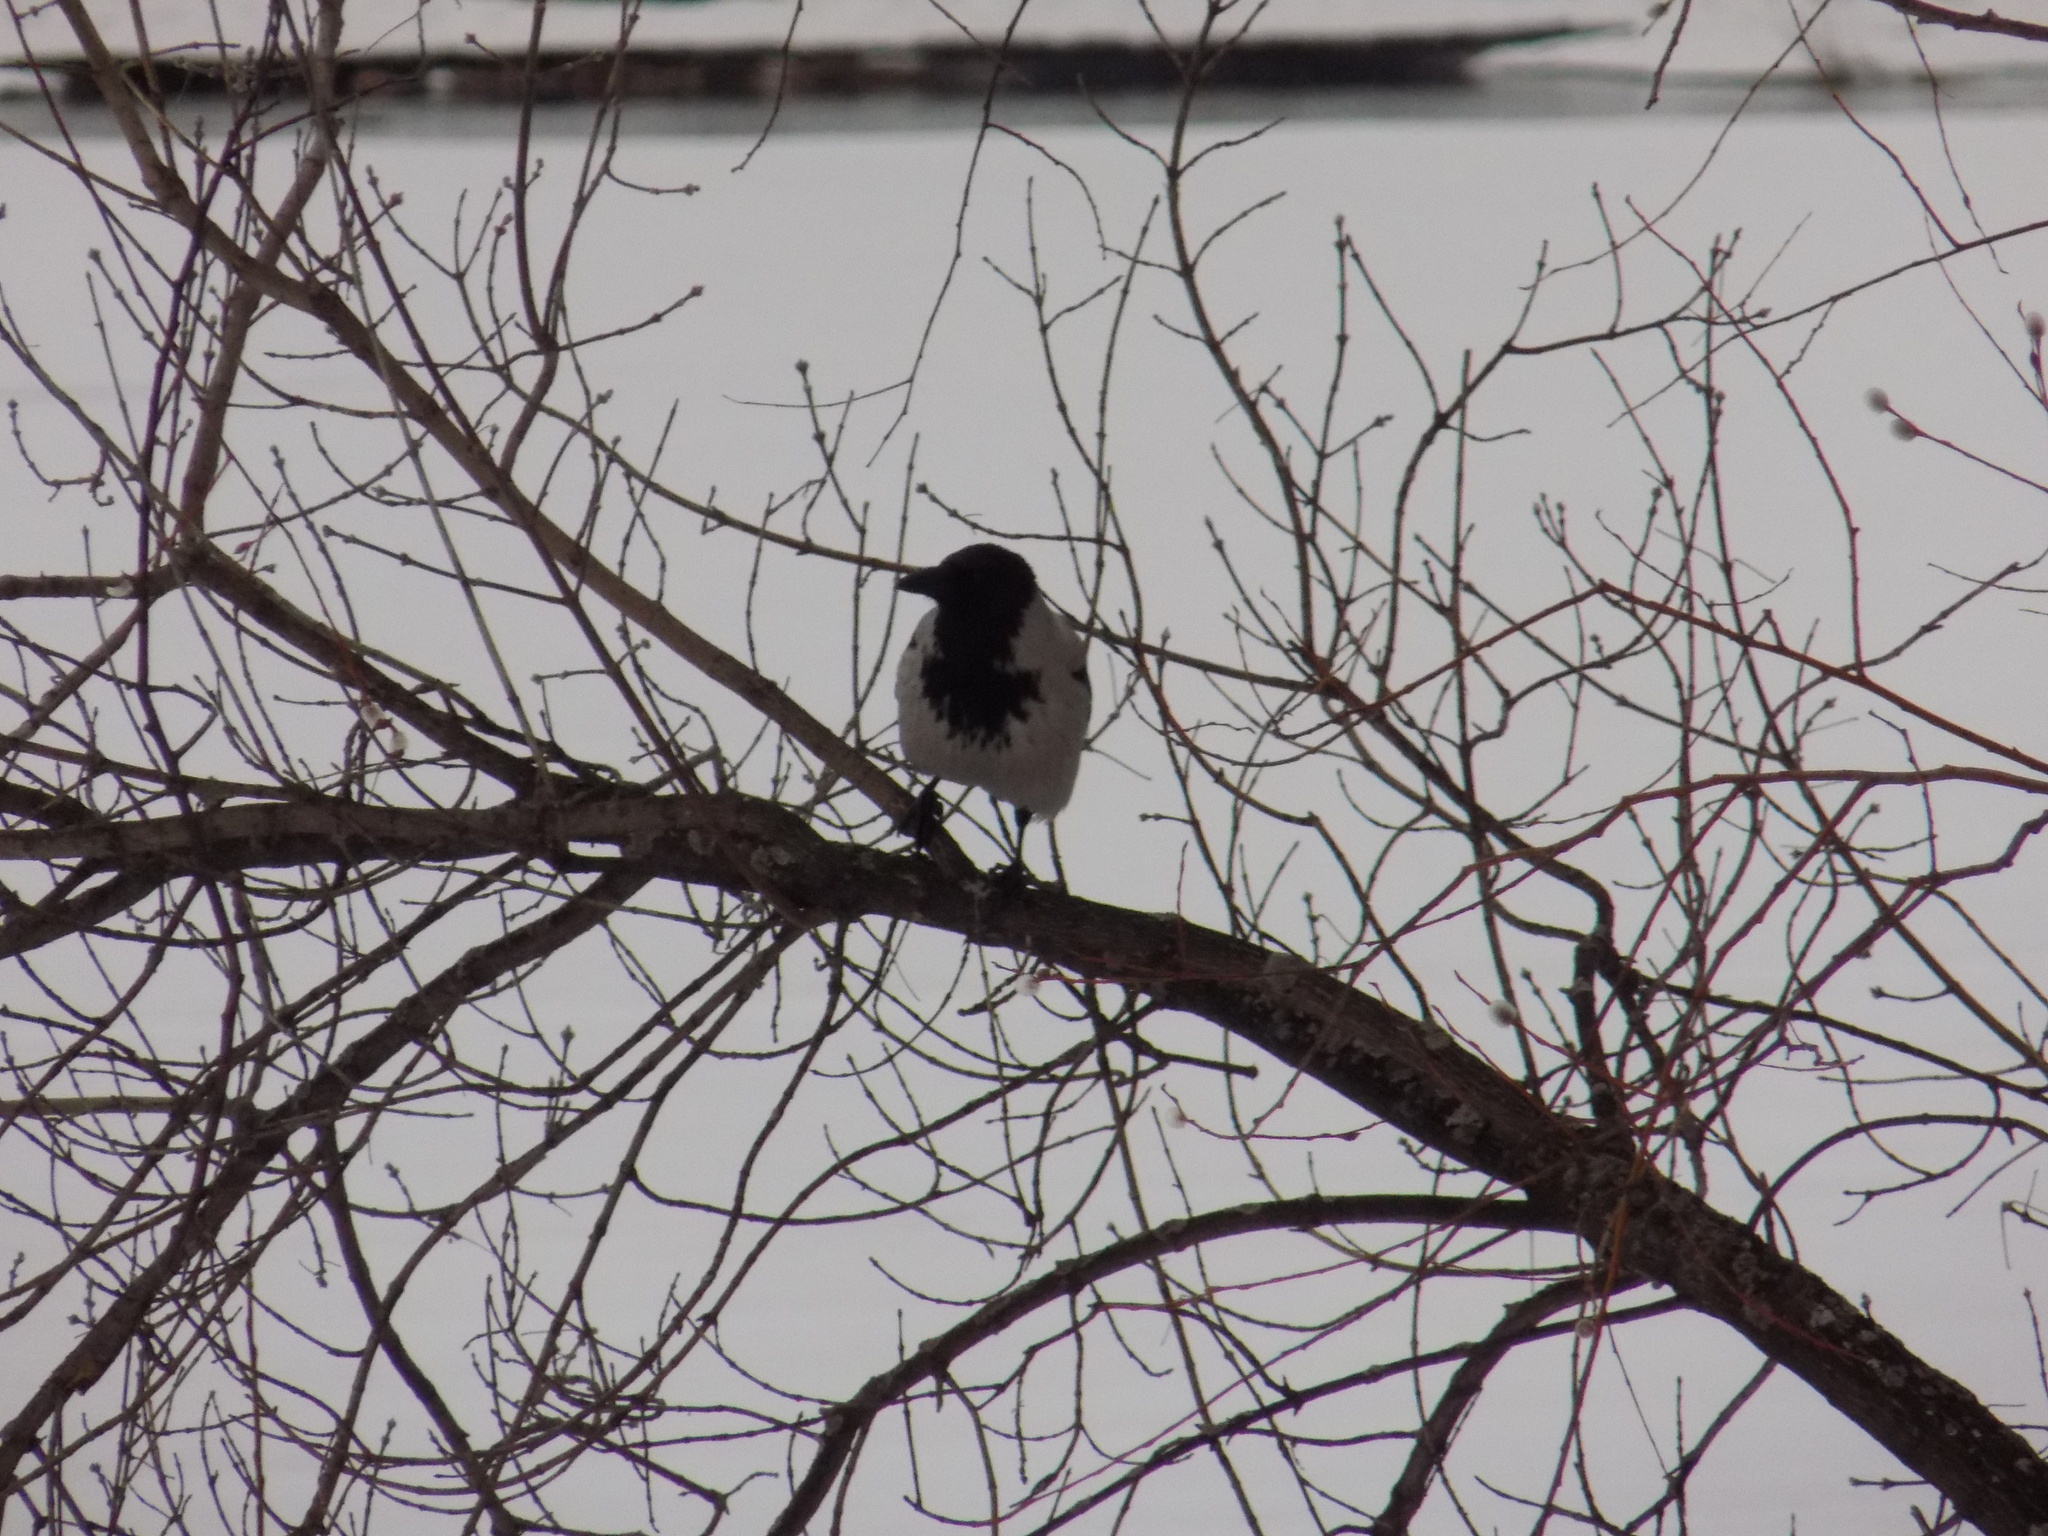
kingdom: Animalia
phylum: Chordata
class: Aves
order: Passeriformes
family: Corvidae
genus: Corvus
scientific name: Corvus cornix
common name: Hooded crow
